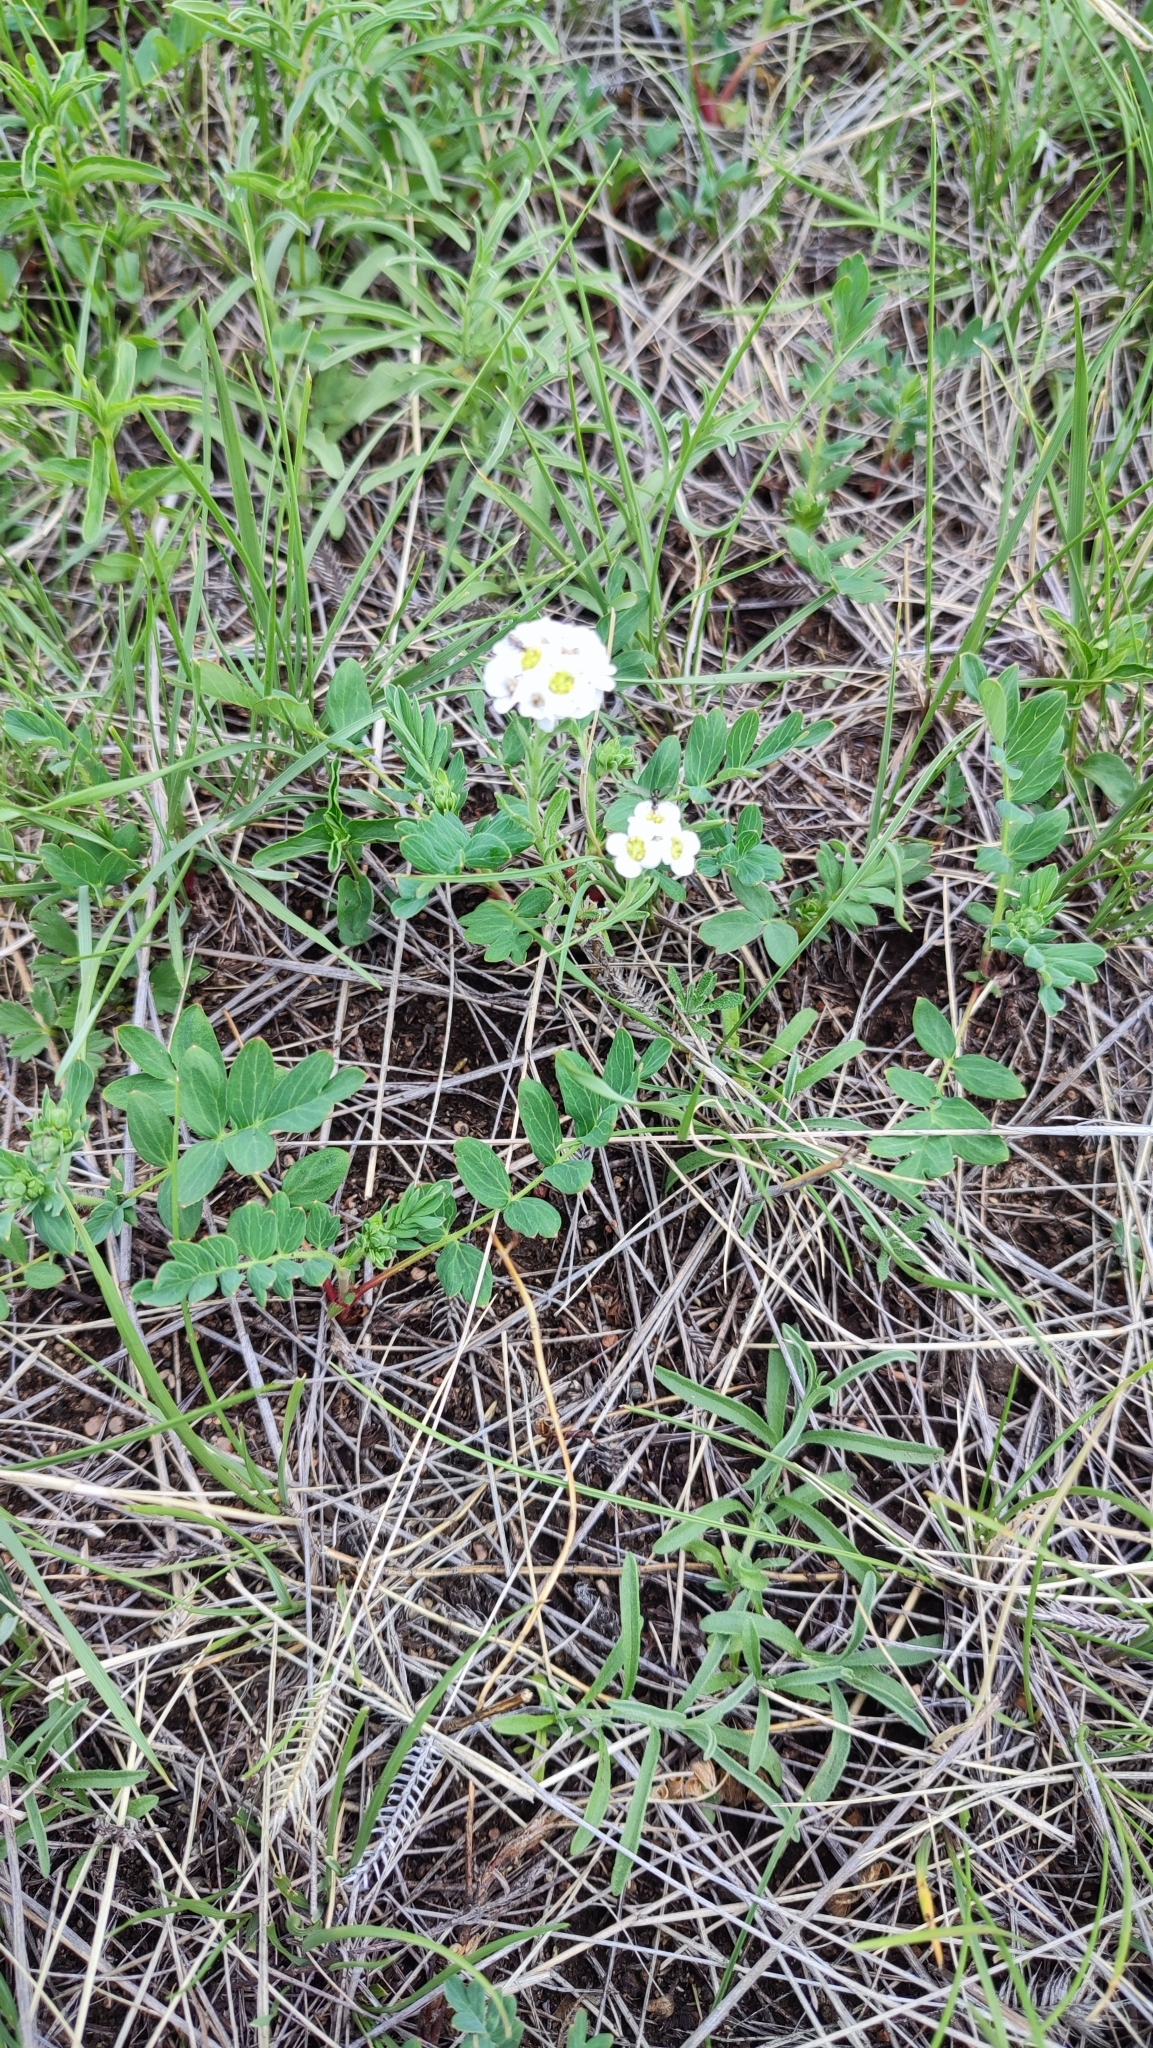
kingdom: Plantae
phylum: Tracheophyta
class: Magnoliopsida
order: Brassicales
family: Brassicaceae
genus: Stevenia
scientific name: Stevenia tenuifolia
